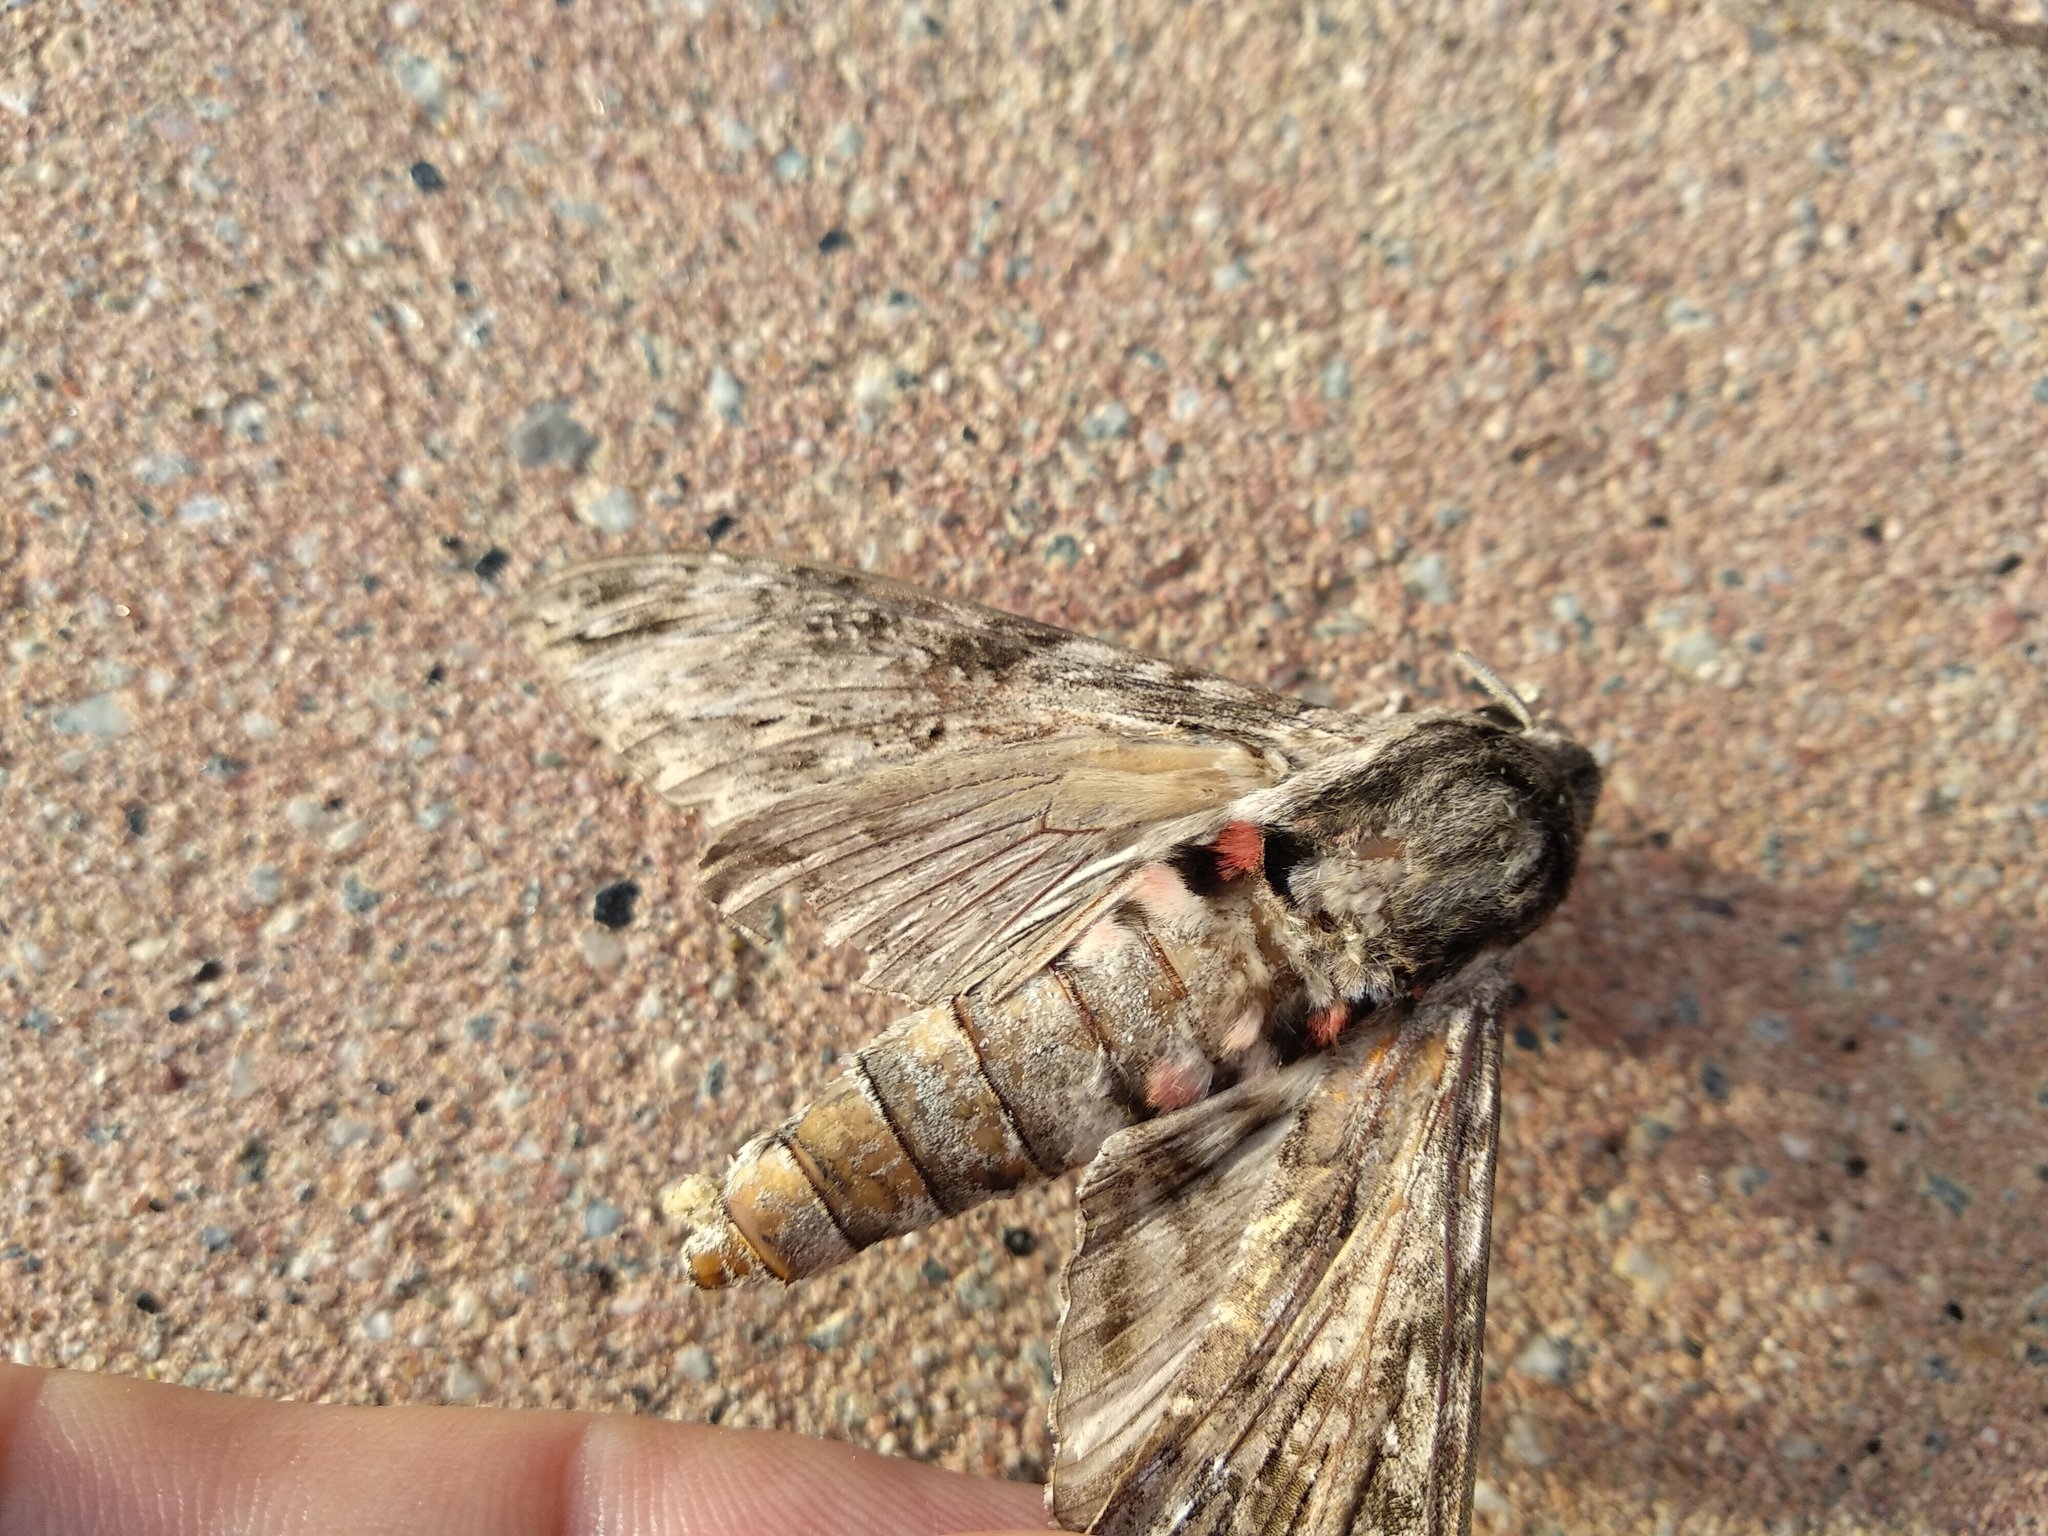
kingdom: Animalia
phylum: Arthropoda
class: Insecta
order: Lepidoptera
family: Sphingidae
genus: Agrius
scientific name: Agrius convolvuli
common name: Convolvulus hawkmoth
